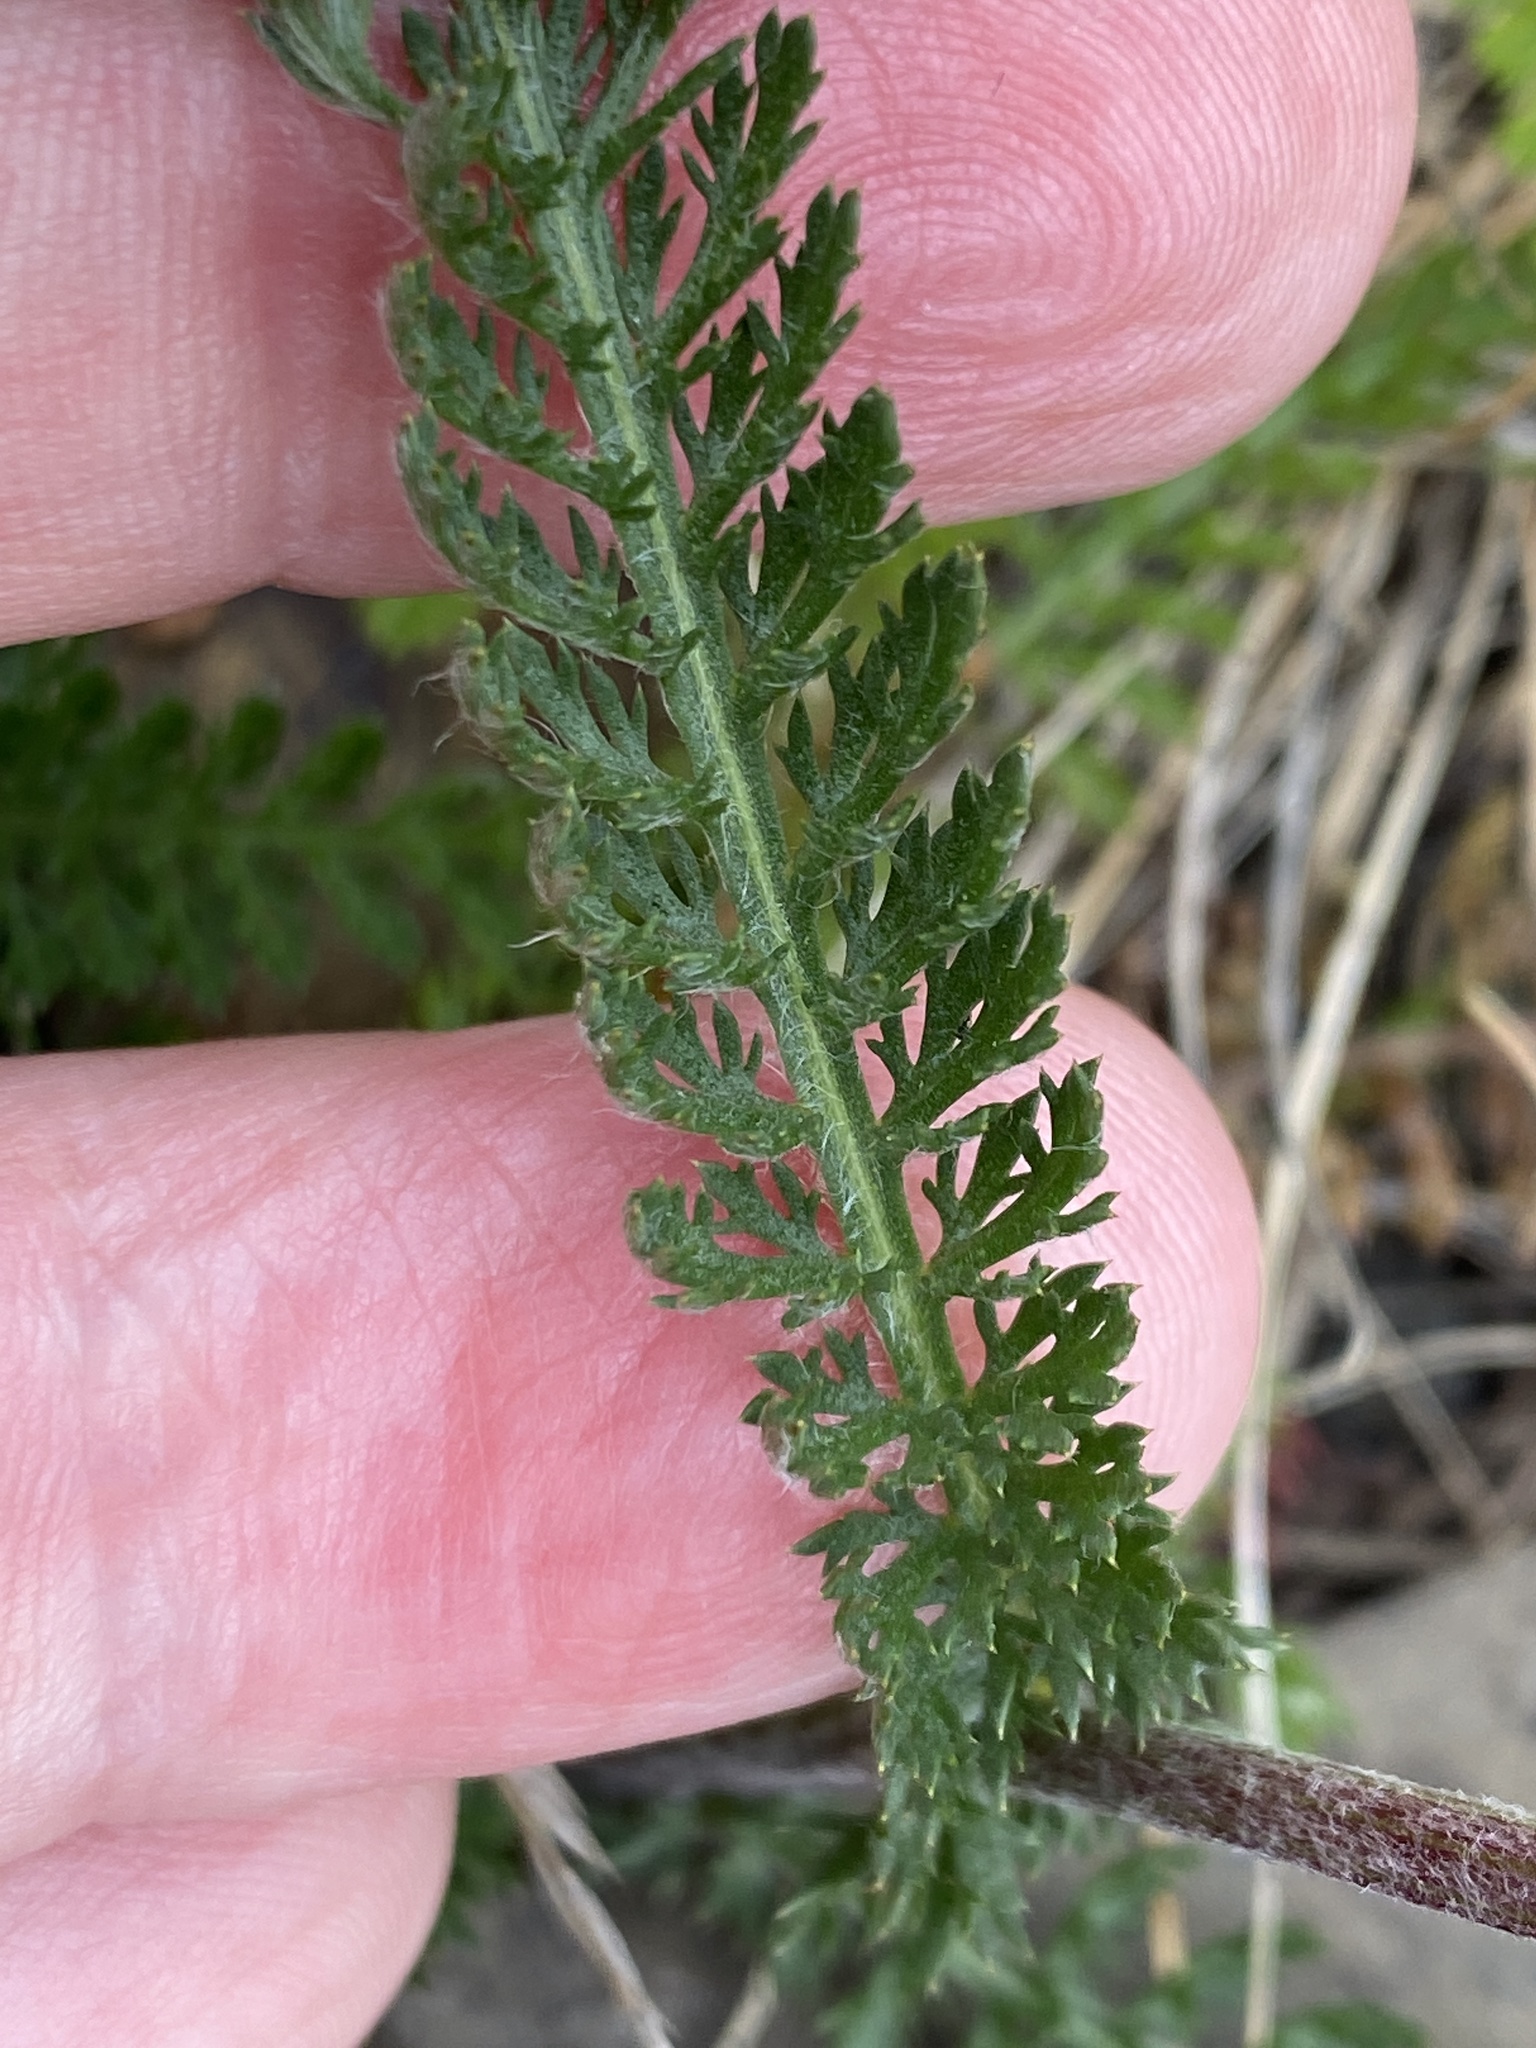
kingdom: Plantae
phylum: Tracheophyta
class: Magnoliopsida
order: Asterales
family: Asteraceae
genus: Achillea
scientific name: Achillea millefolium
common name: Yarrow
